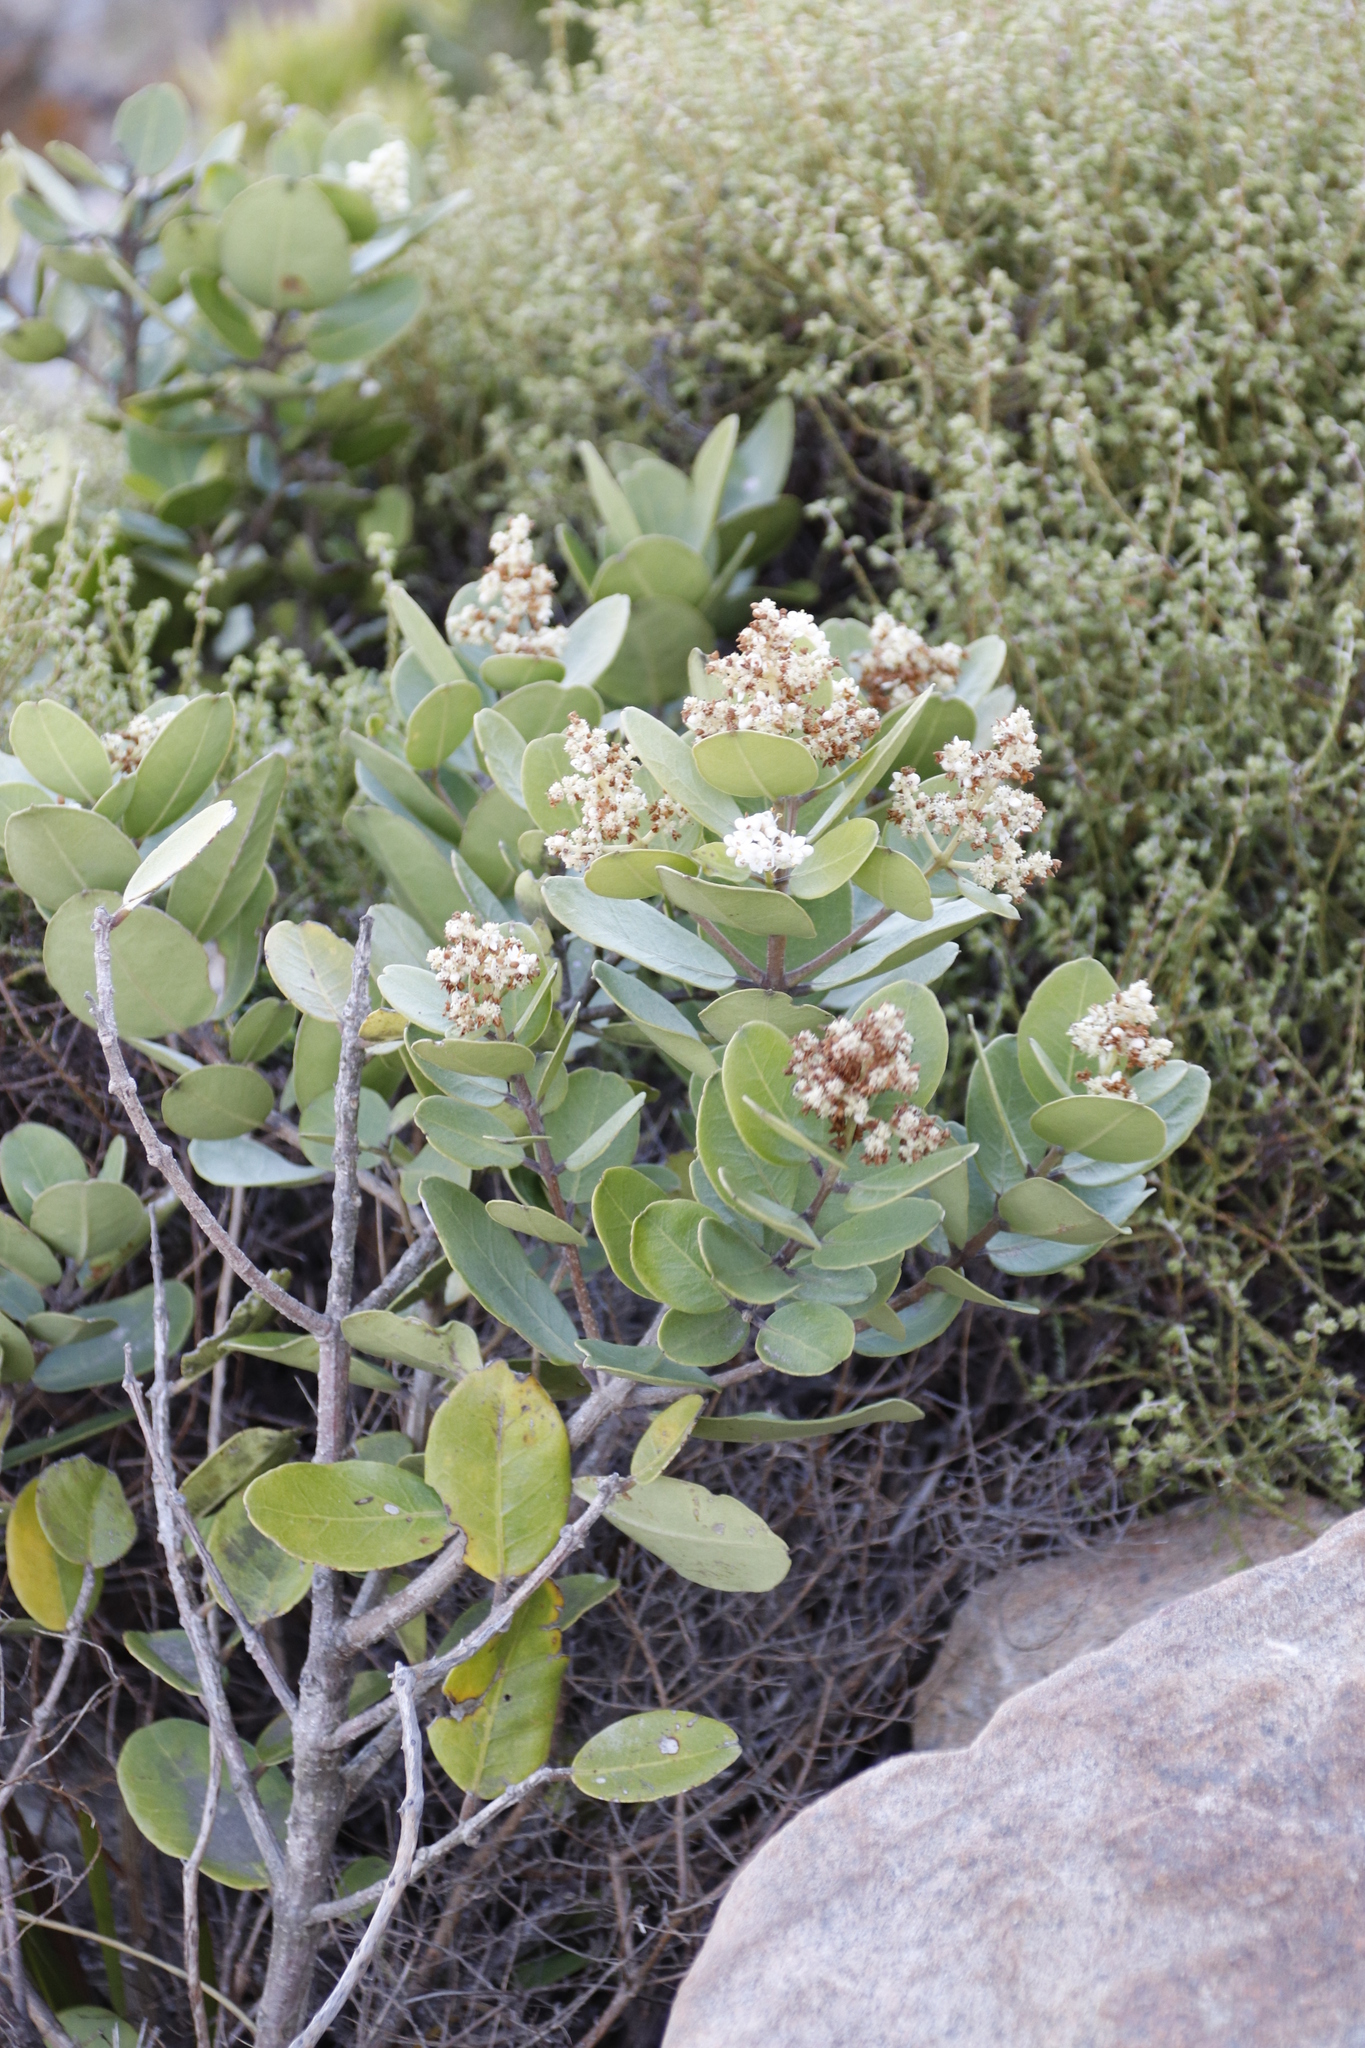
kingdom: Plantae
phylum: Tracheophyta
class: Magnoliopsida
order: Lamiales
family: Oleaceae
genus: Olea
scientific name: Olea capensis
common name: Black ironwood
